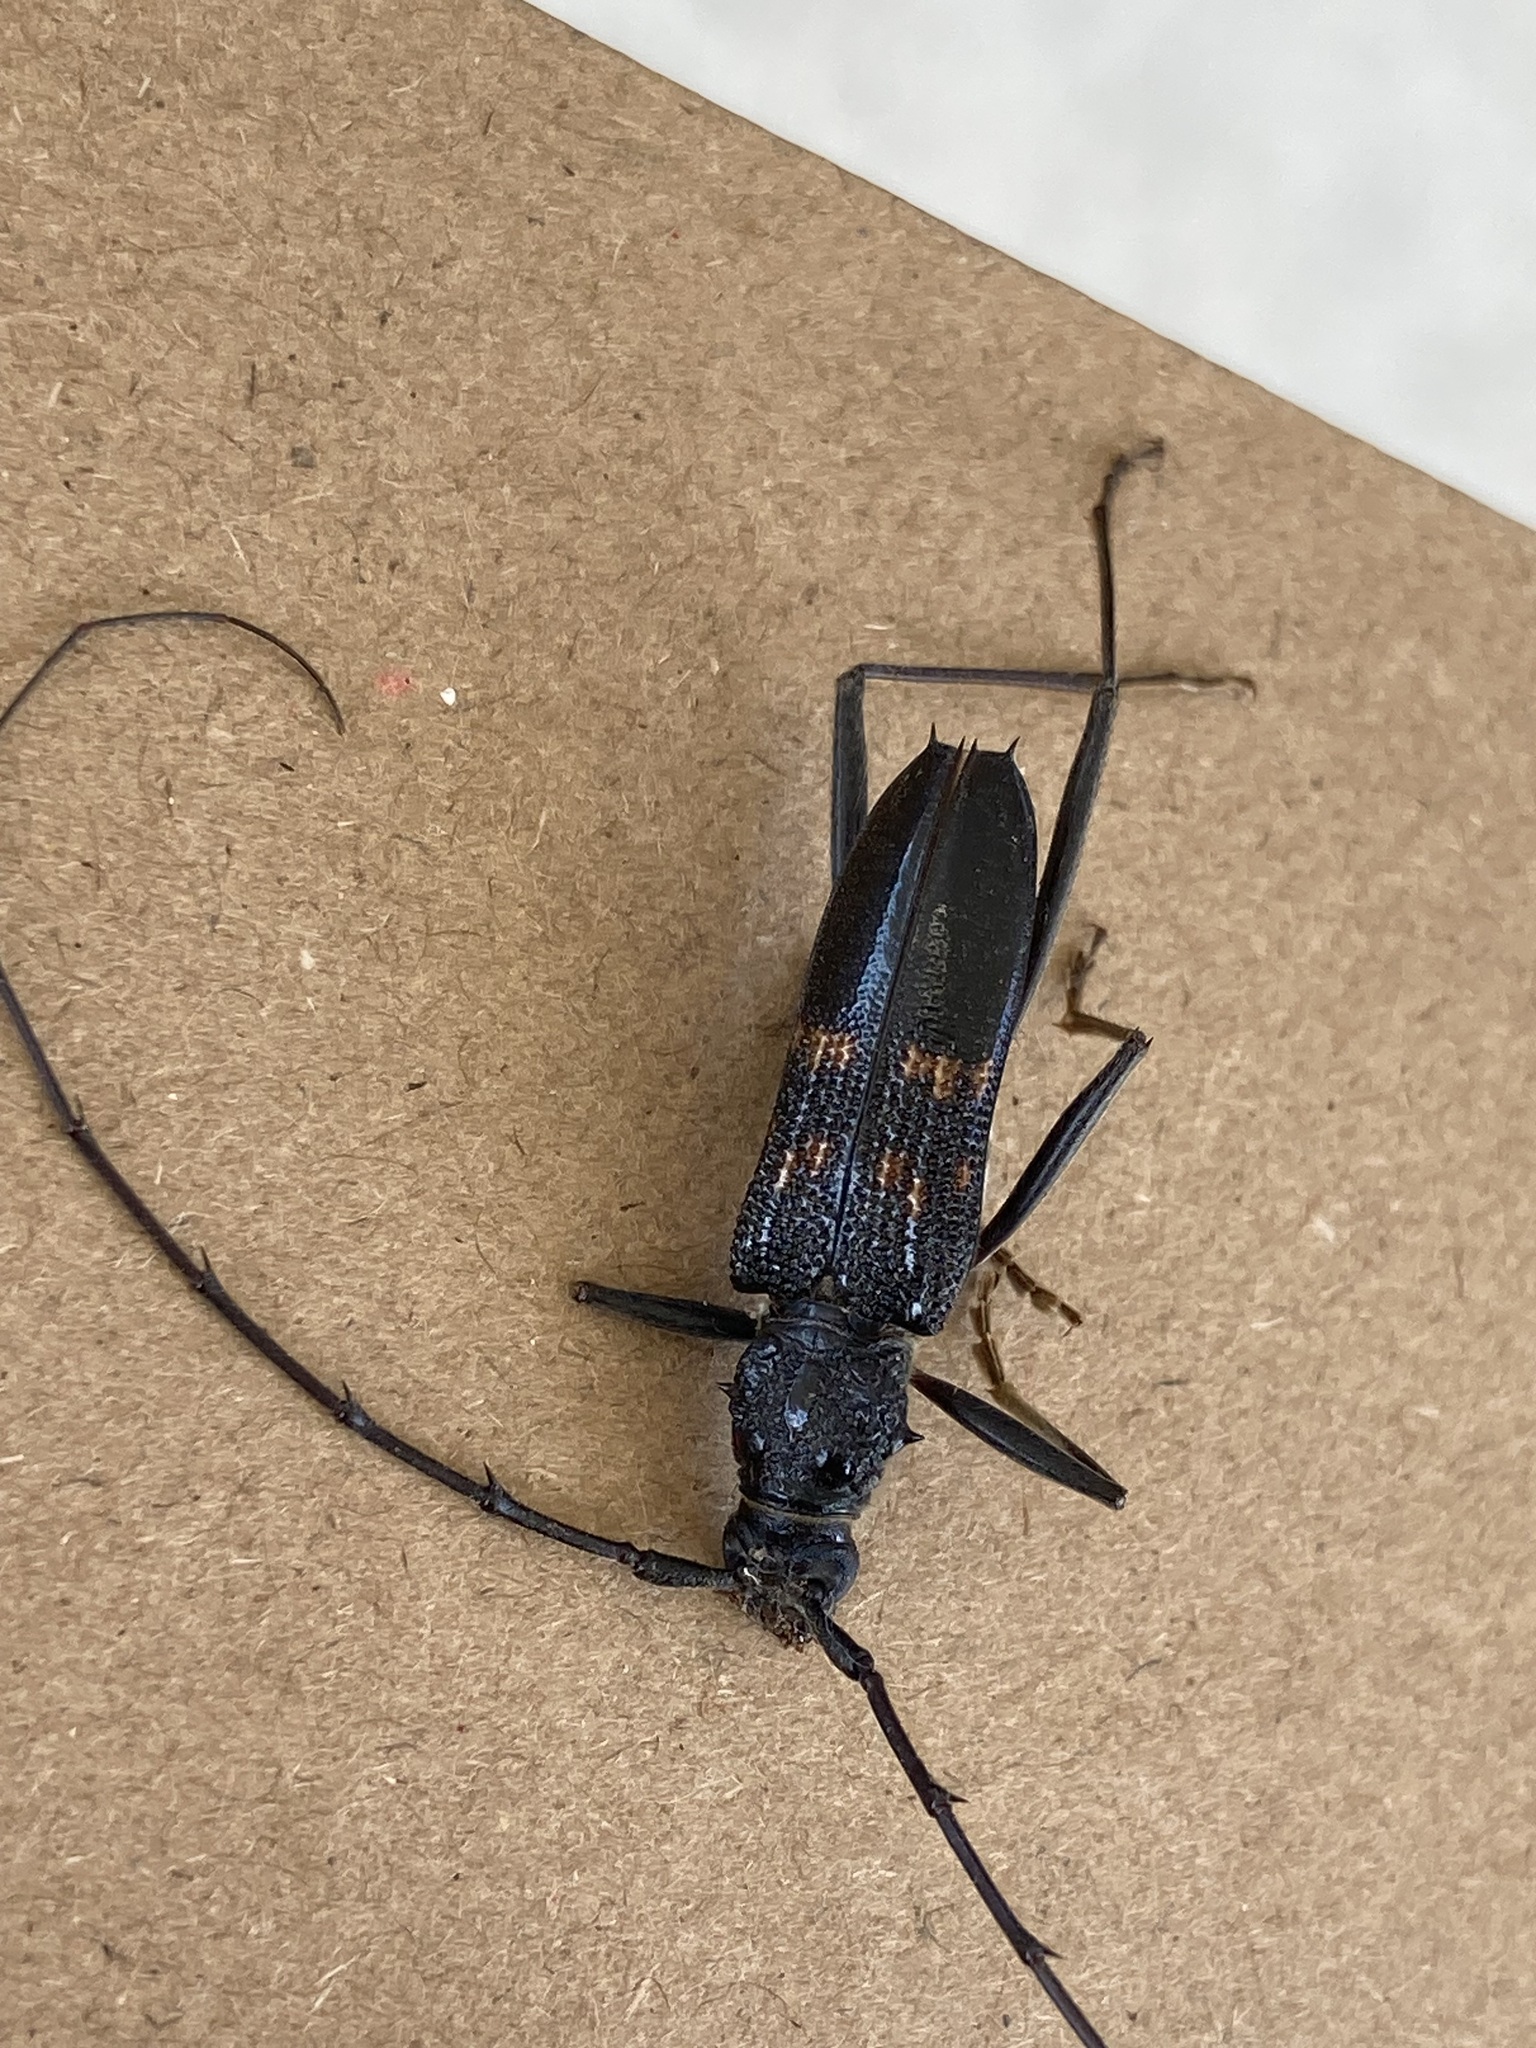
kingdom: Animalia
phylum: Arthropoda
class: Insecta
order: Coleoptera
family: Cerambycidae
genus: Phoracantha
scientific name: Phoracantha obscura
